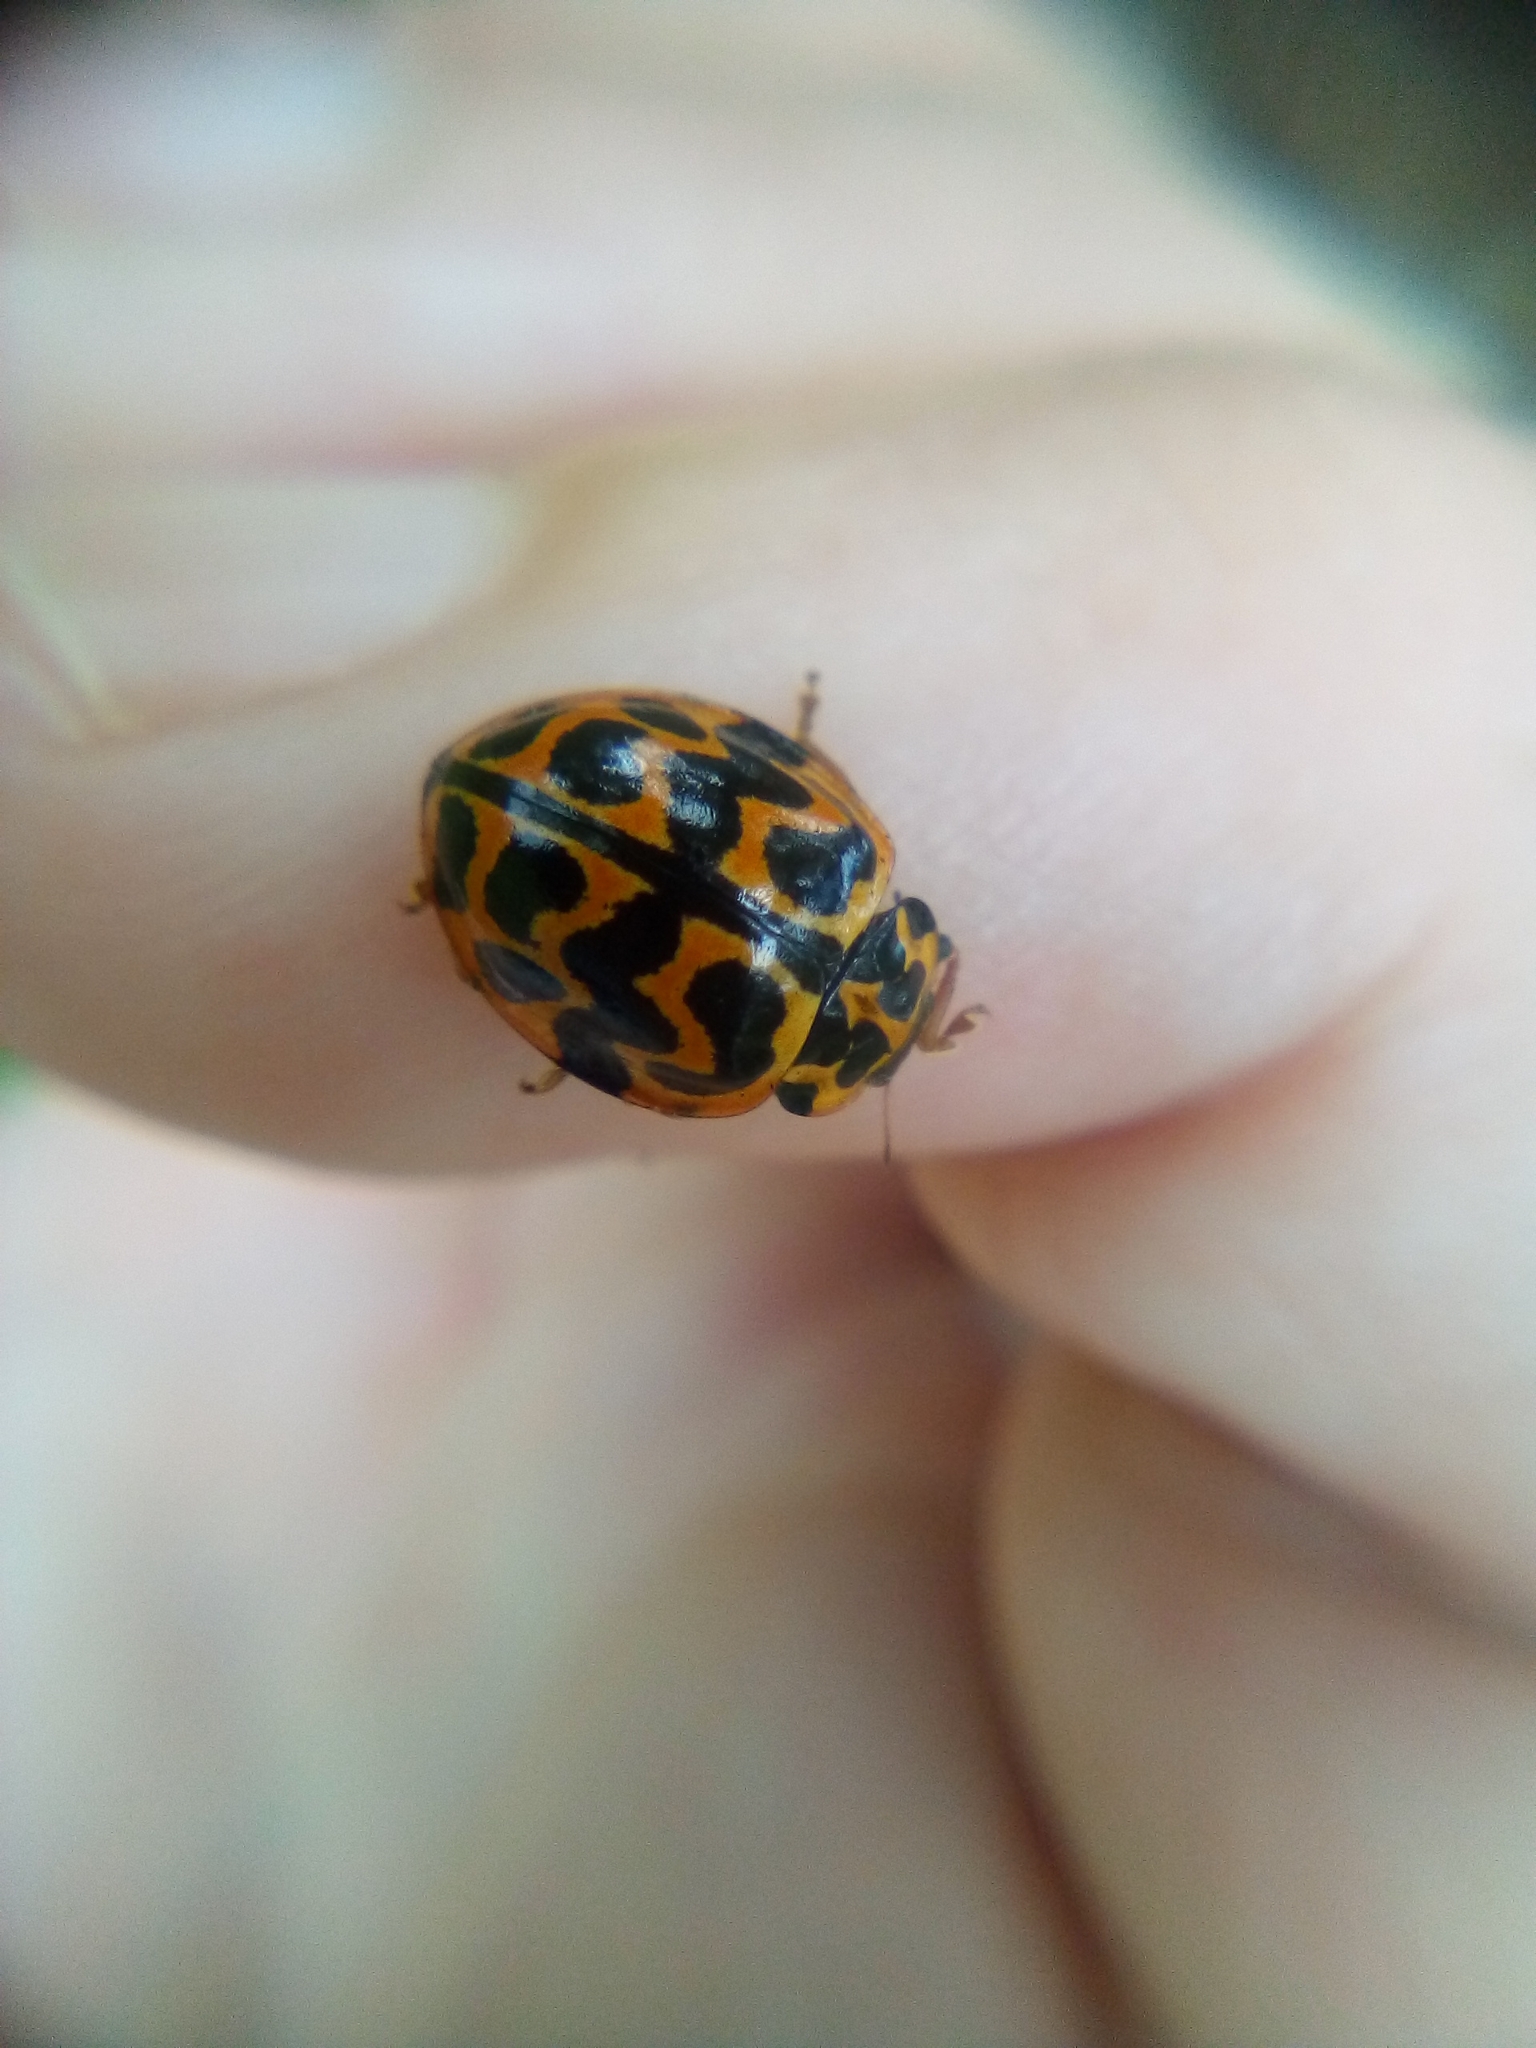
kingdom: Animalia
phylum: Arthropoda
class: Insecta
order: Coleoptera
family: Coccinellidae
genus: Cleobora
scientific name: Cleobora
